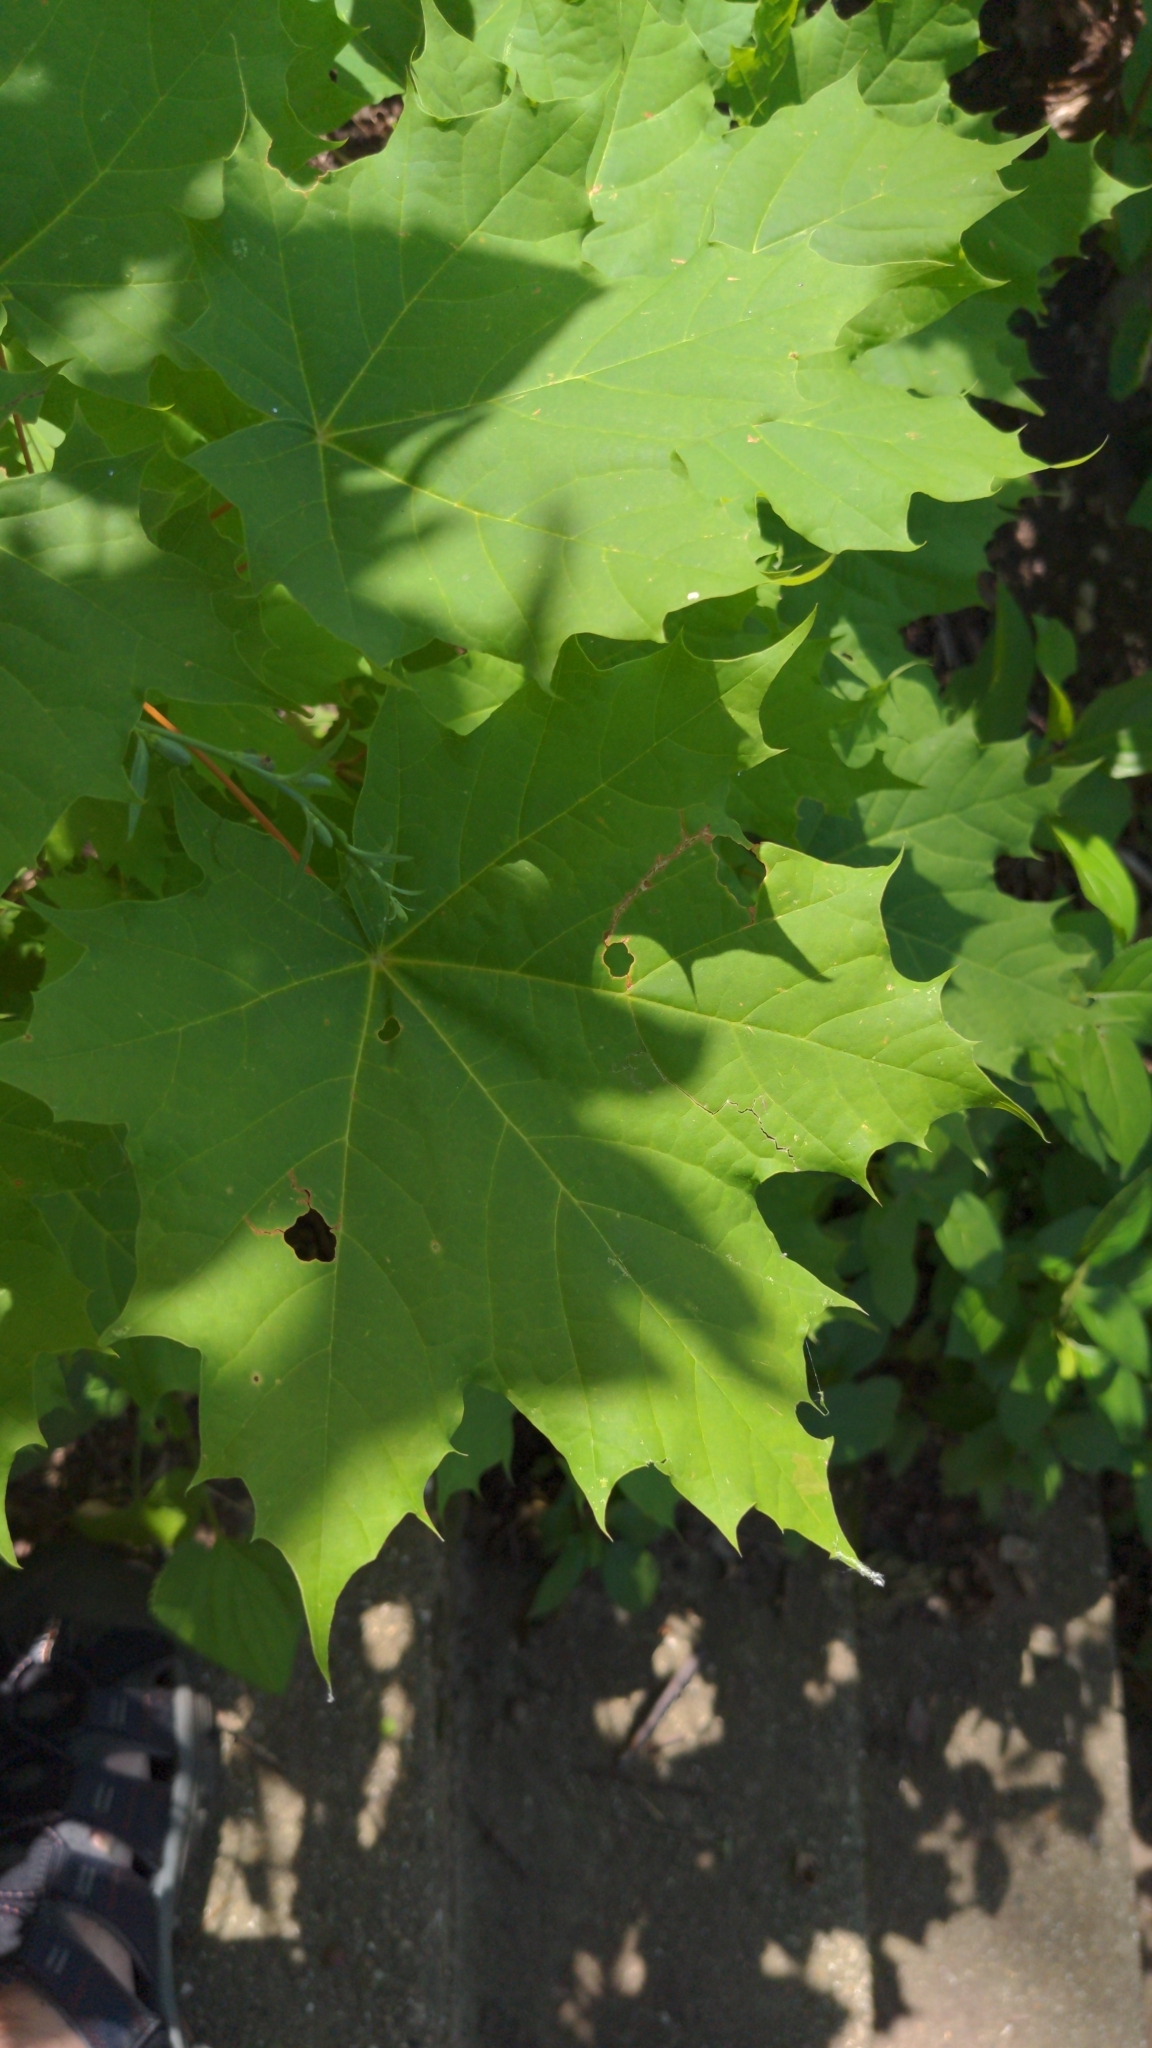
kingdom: Plantae
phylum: Tracheophyta
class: Magnoliopsida
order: Sapindales
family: Sapindaceae
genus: Acer
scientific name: Acer platanoides
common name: Norway maple
